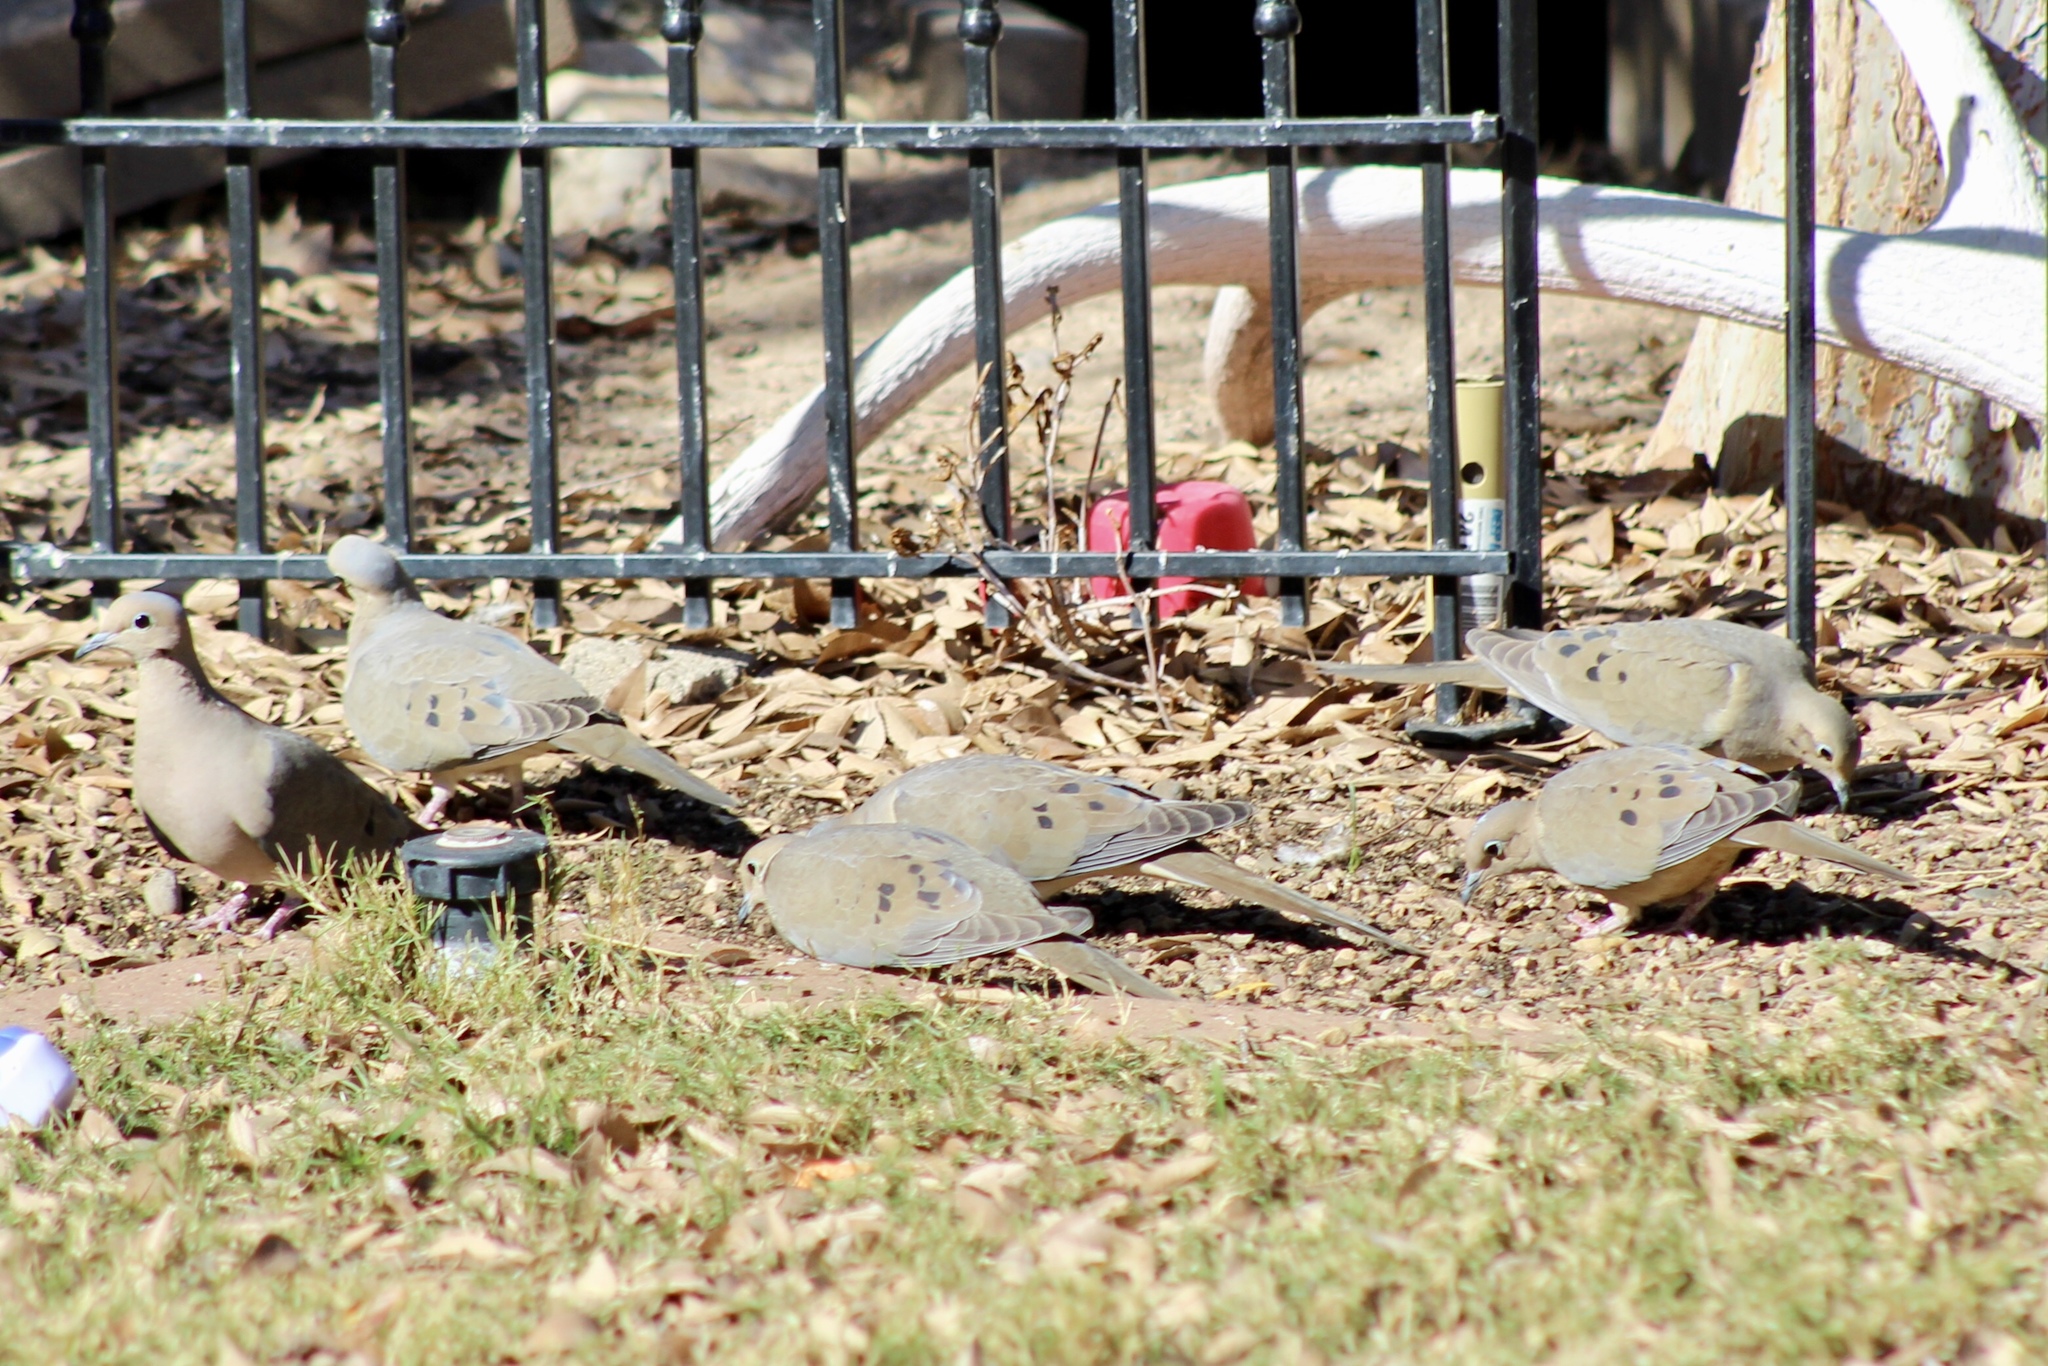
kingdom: Animalia
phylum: Chordata
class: Aves
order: Columbiformes
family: Columbidae
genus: Zenaida
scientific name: Zenaida macroura
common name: Mourning dove
